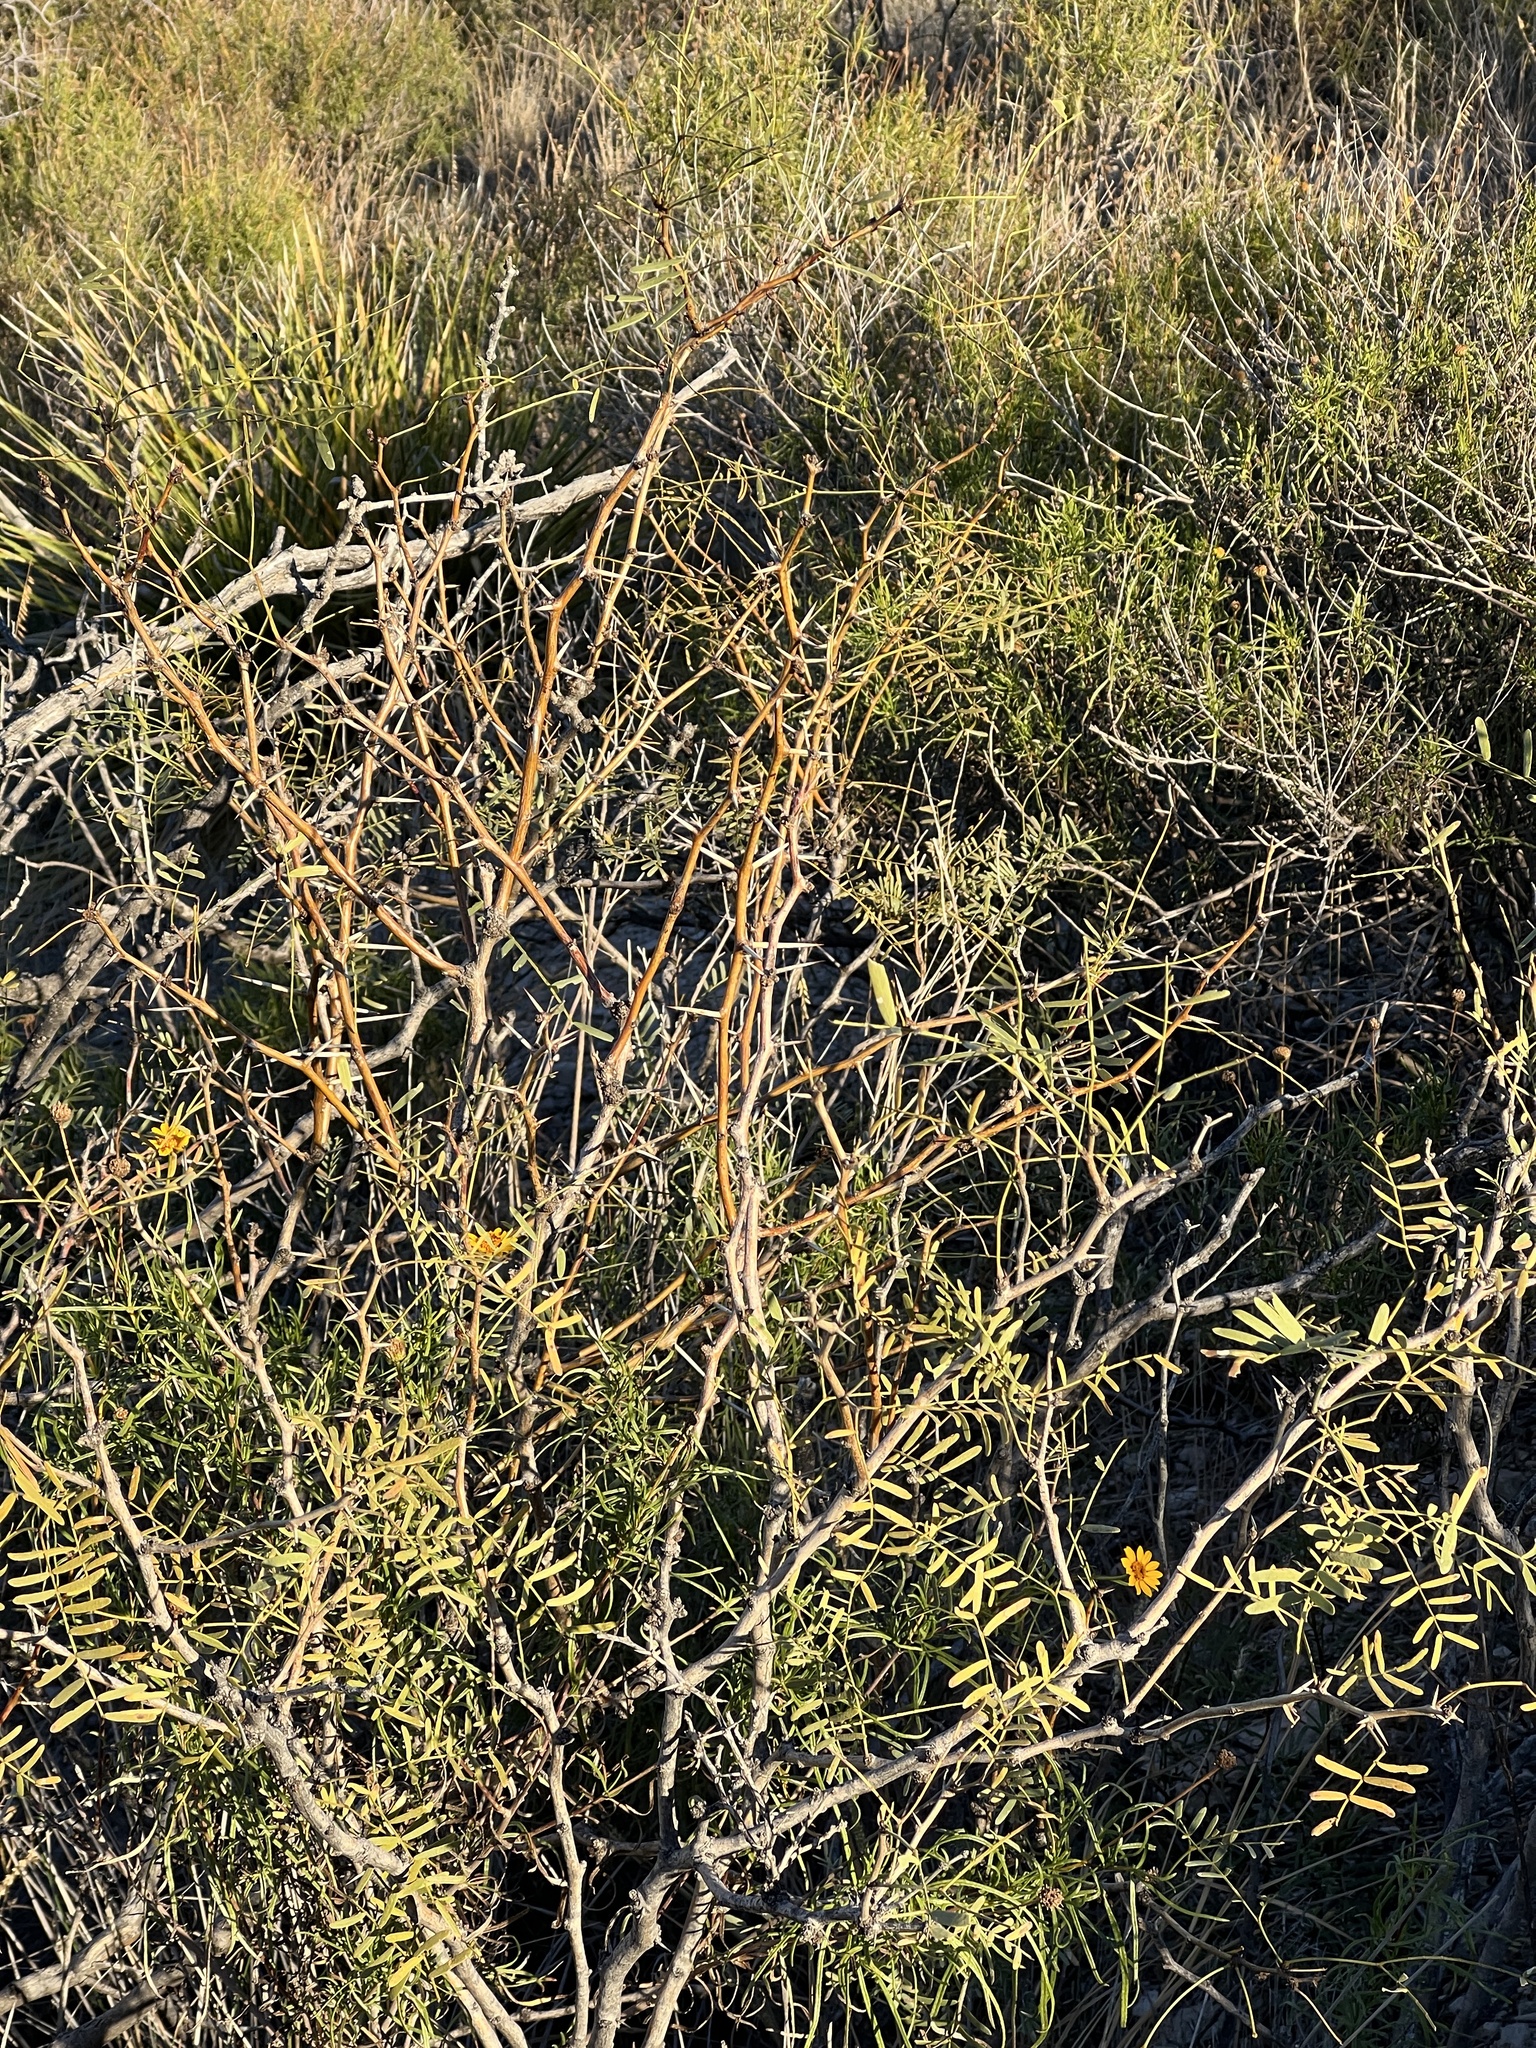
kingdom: Plantae
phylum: Tracheophyta
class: Magnoliopsida
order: Fabales
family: Fabaceae
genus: Prosopis
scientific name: Prosopis glandulosa
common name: Honey mesquite
